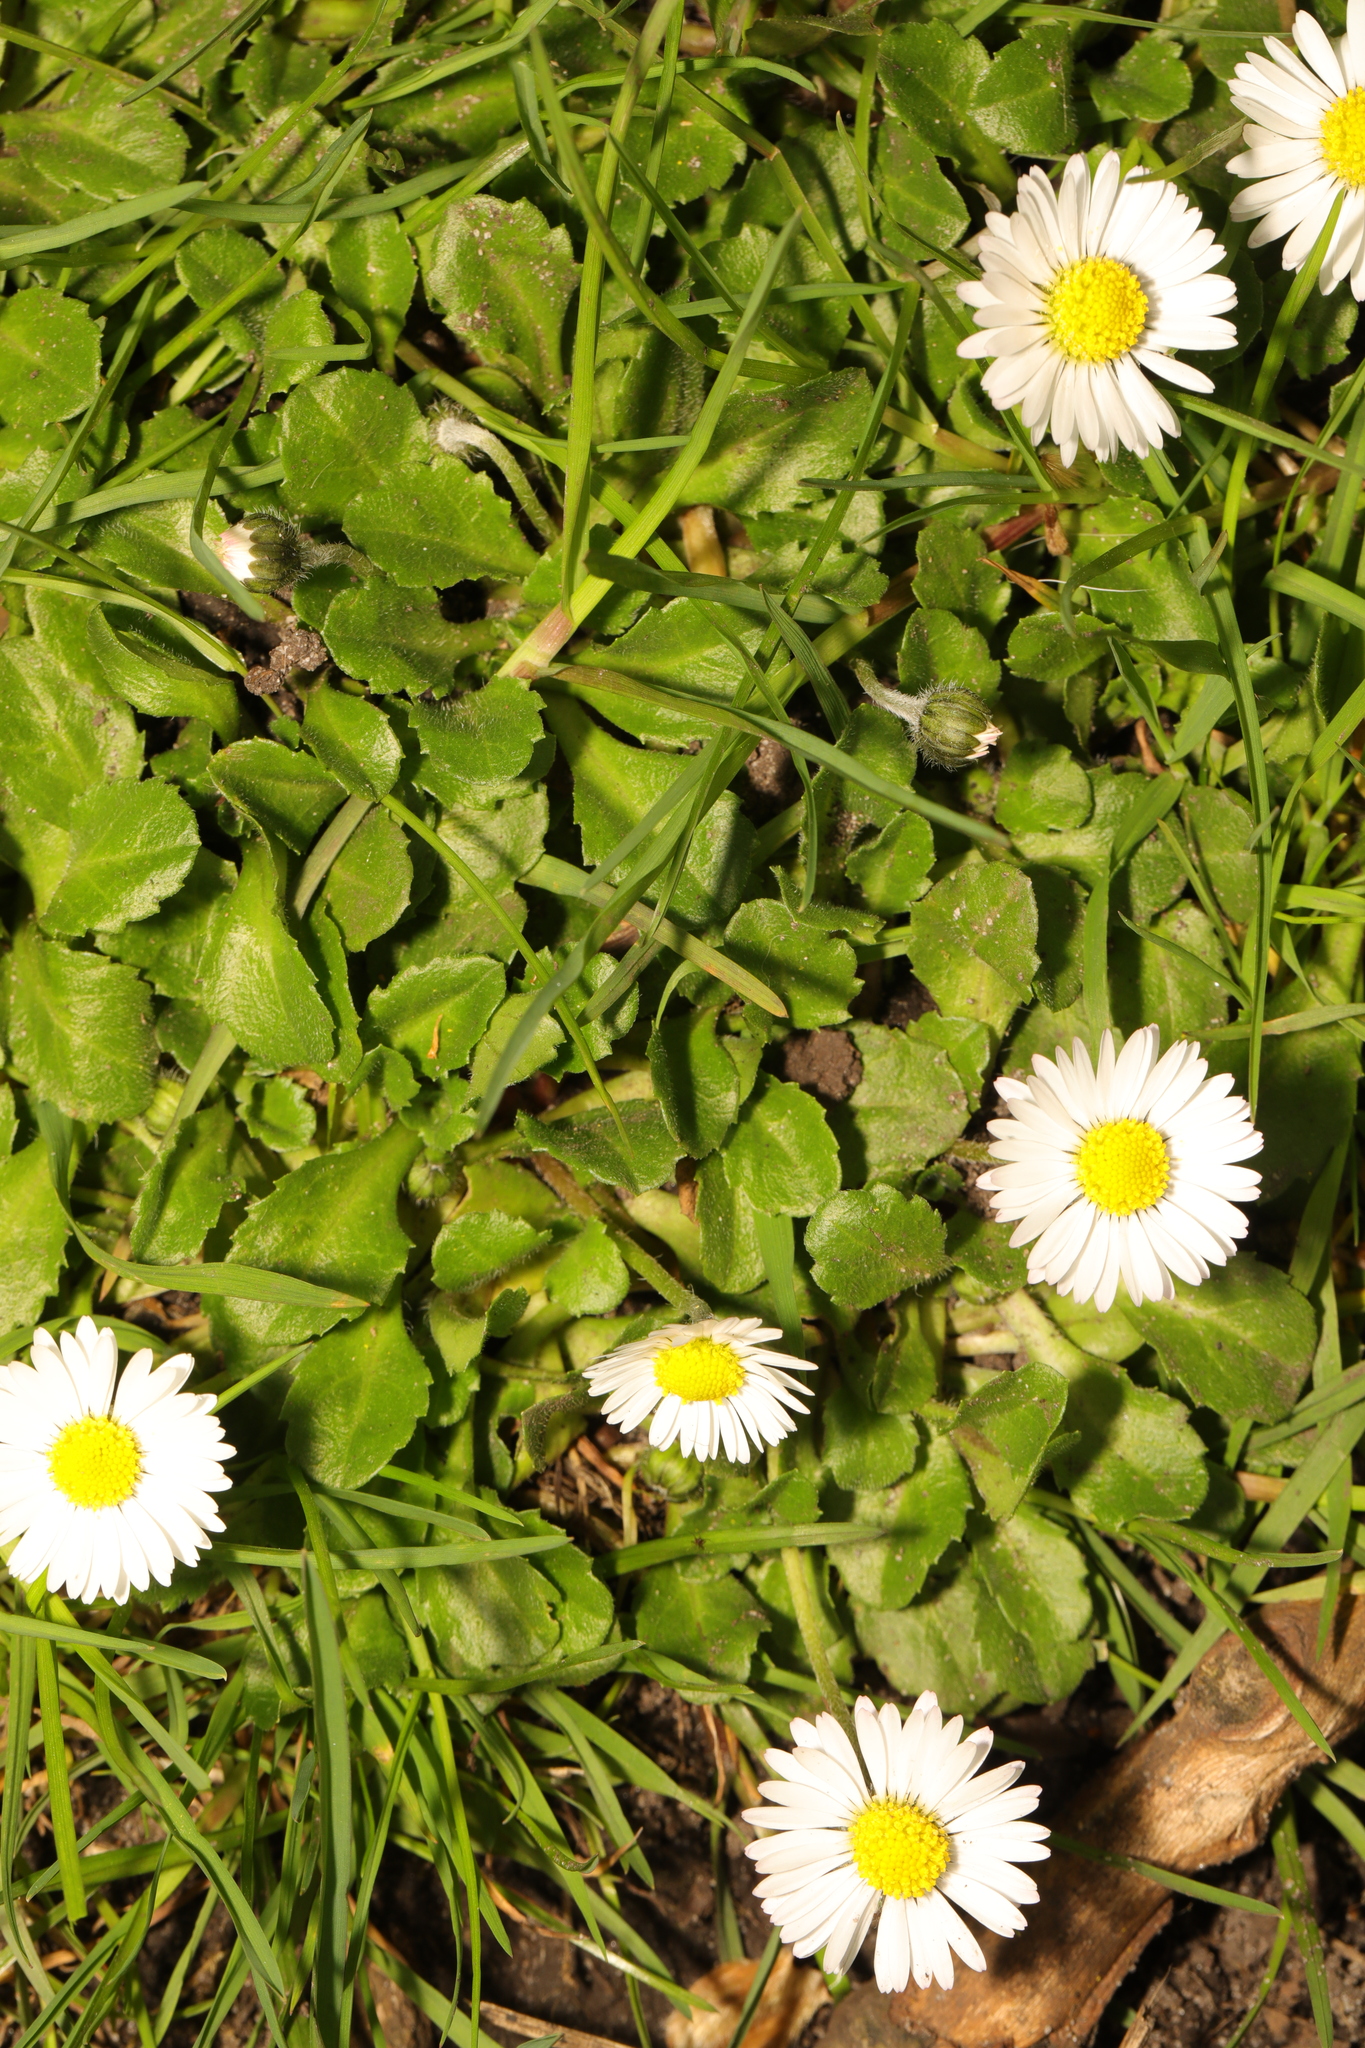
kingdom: Plantae
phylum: Tracheophyta
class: Magnoliopsida
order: Asterales
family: Asteraceae
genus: Bellis
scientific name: Bellis perennis
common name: Lawndaisy
